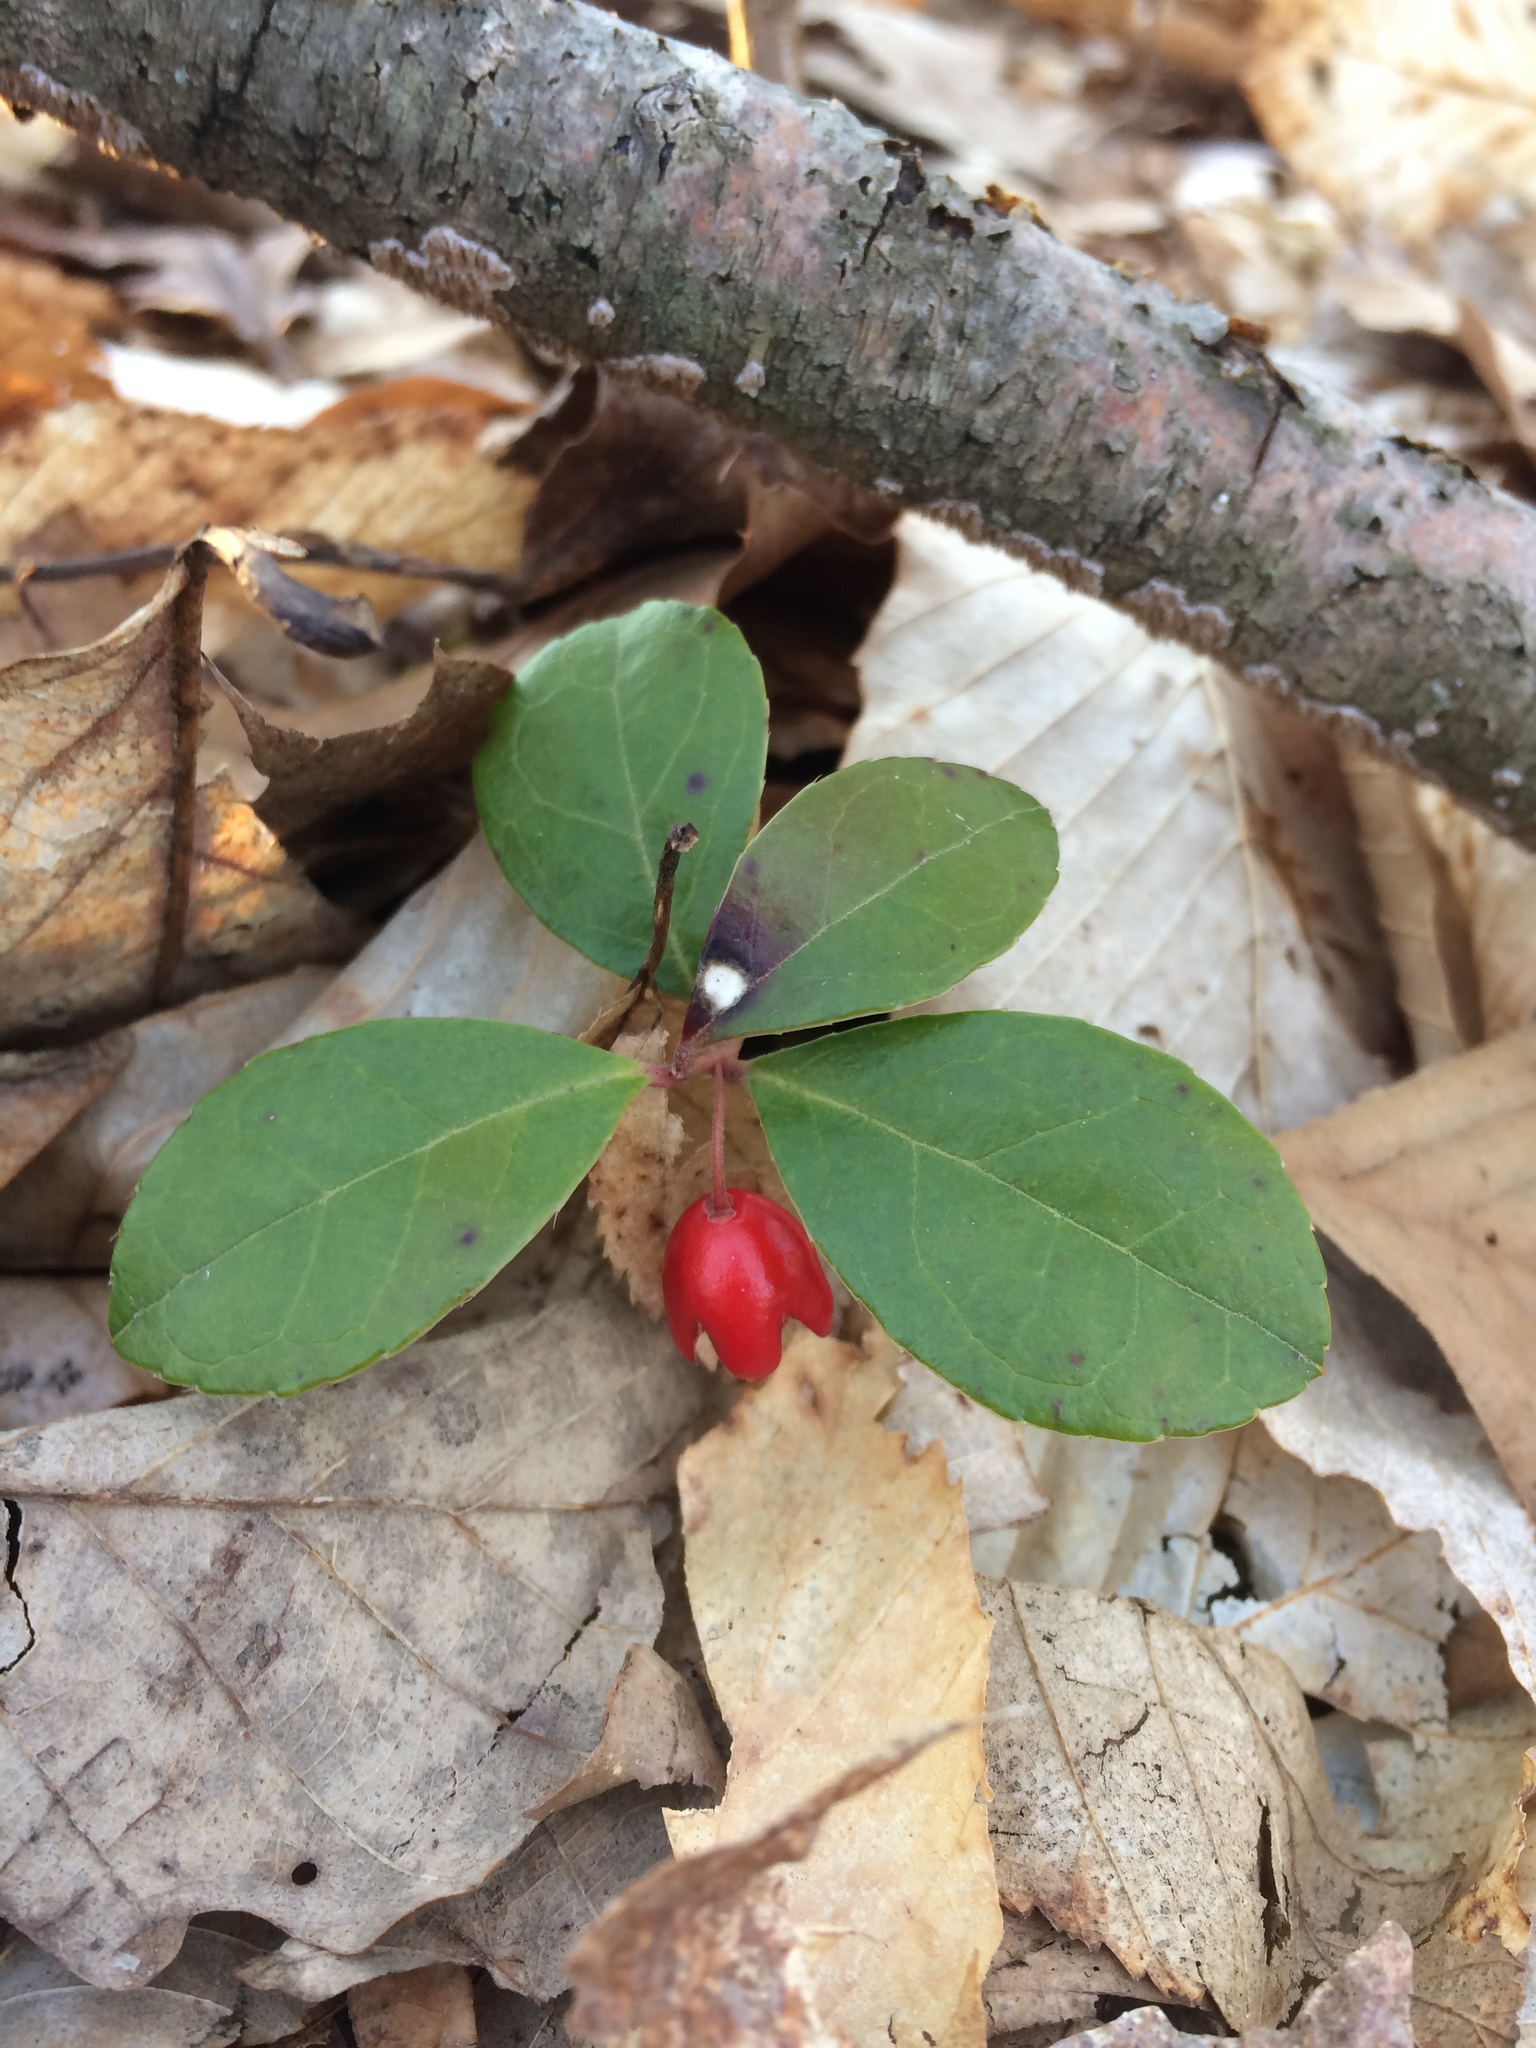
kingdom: Plantae
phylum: Tracheophyta
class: Magnoliopsida
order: Ericales
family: Ericaceae
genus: Gaultheria
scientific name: Gaultheria procumbens
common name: Checkerberry
